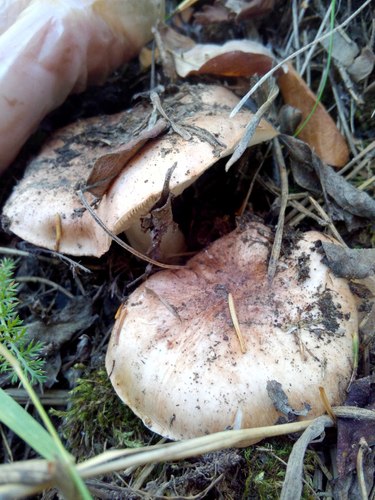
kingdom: Fungi
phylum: Basidiomycota
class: Agaricomycetes
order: Agaricales
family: Lyophyllaceae
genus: Lyophyllum
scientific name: Lyophyllum
